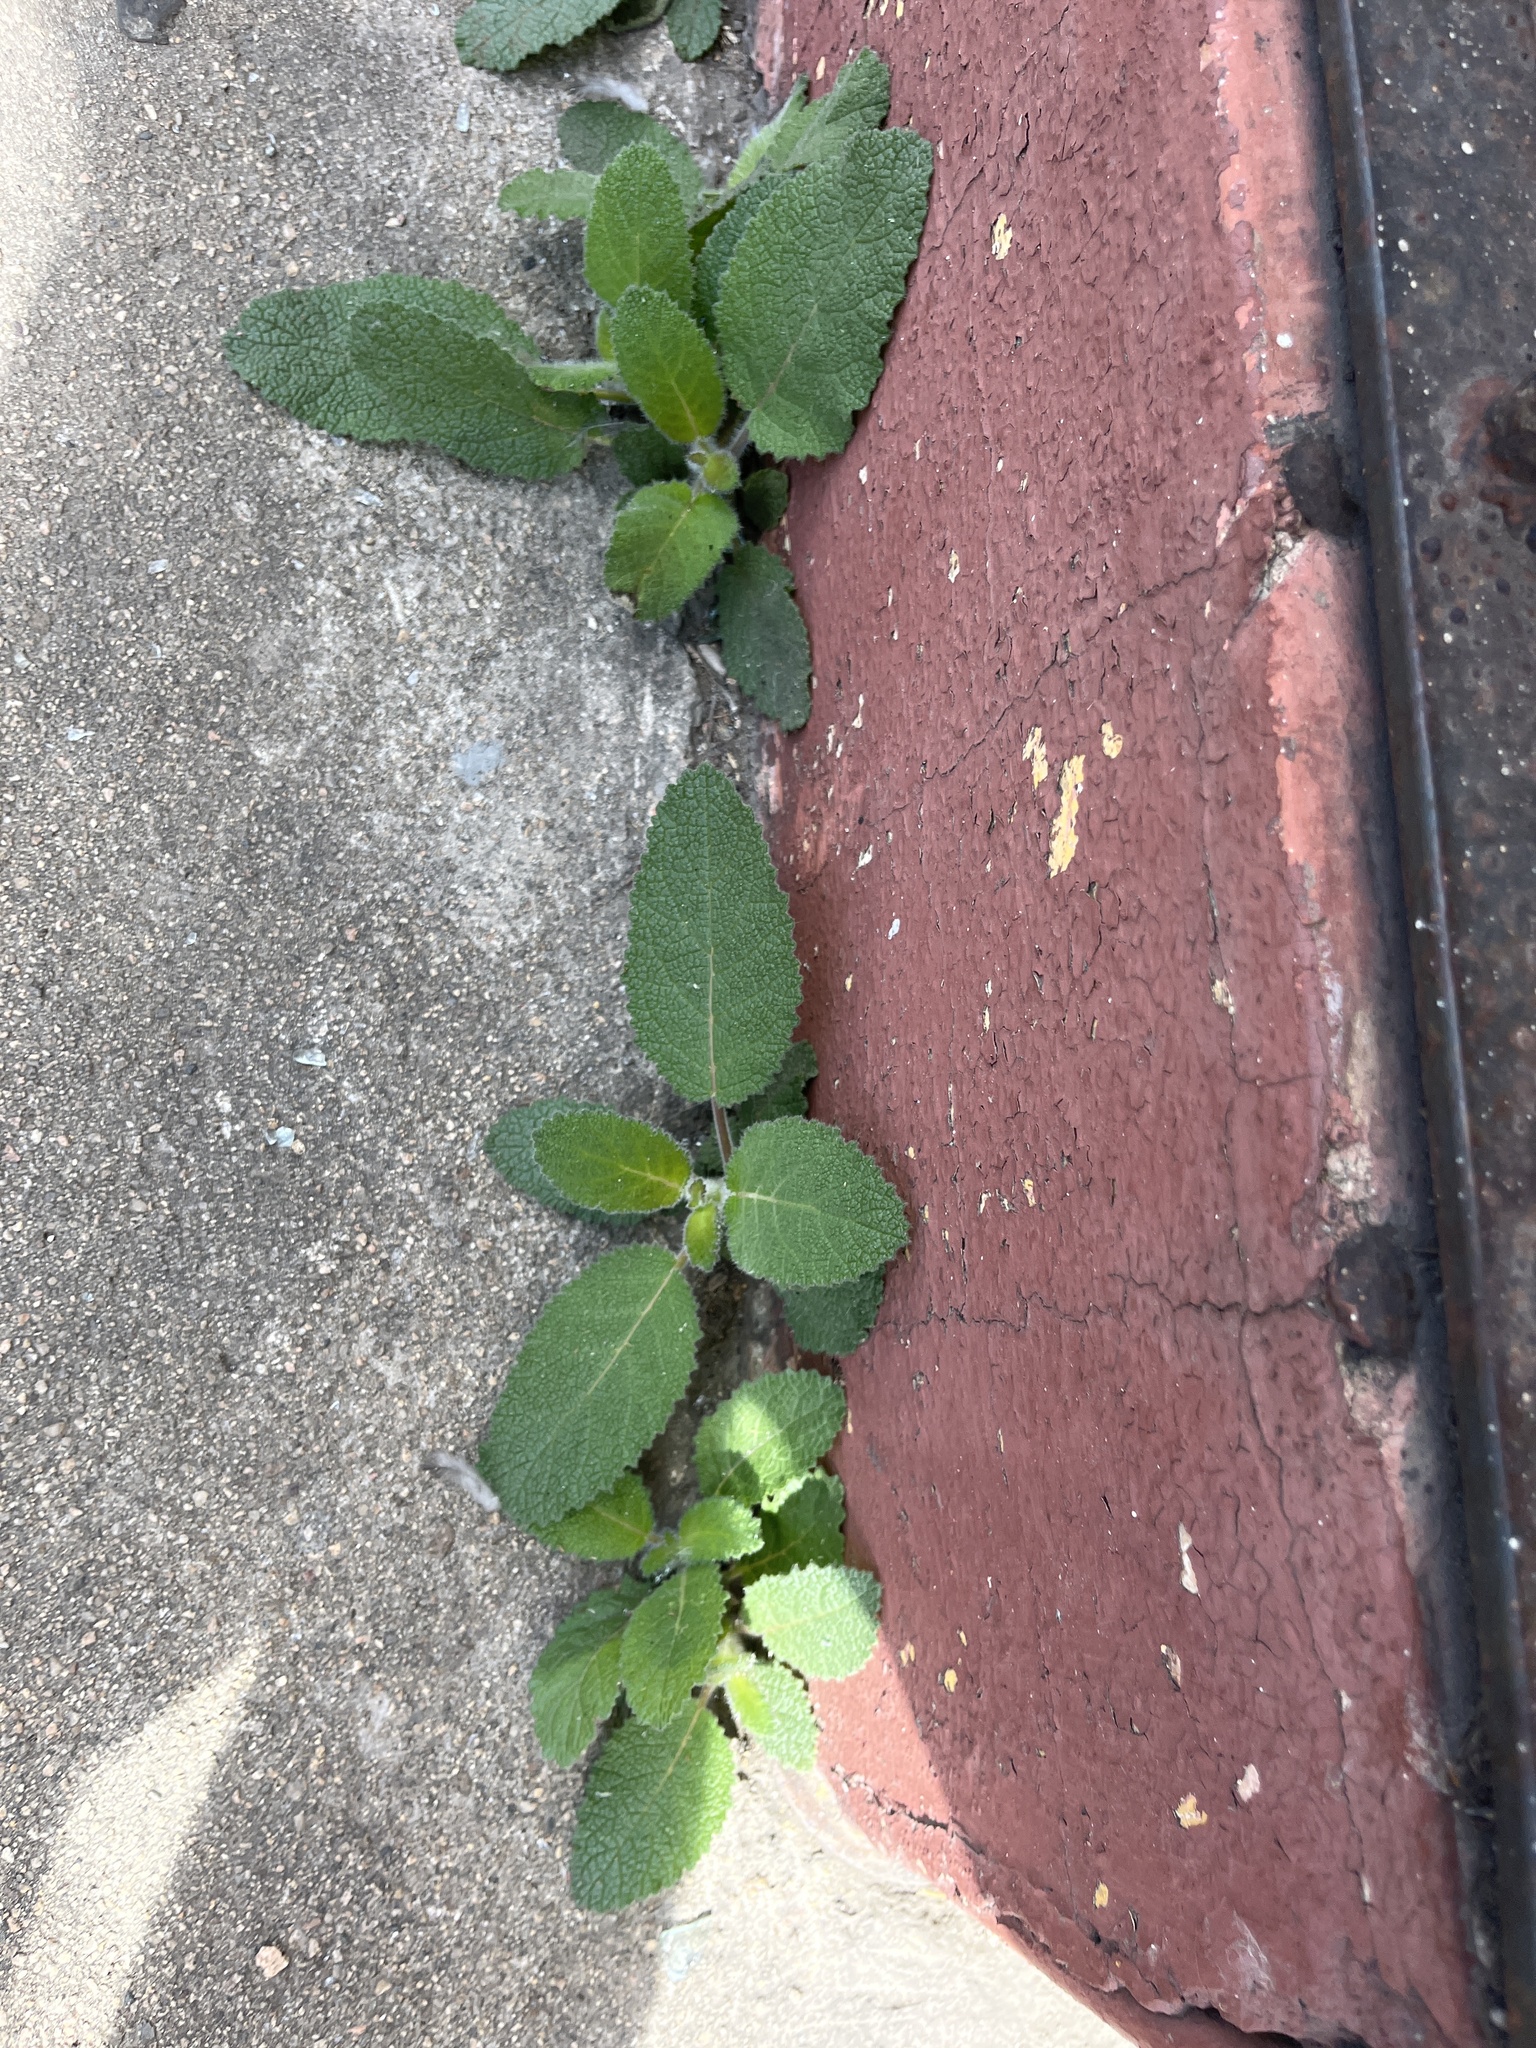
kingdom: Plantae
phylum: Tracheophyta
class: Magnoliopsida
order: Boraginales
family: Namaceae
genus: Wigandia
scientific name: Wigandia urens
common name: Caracus wigandia
